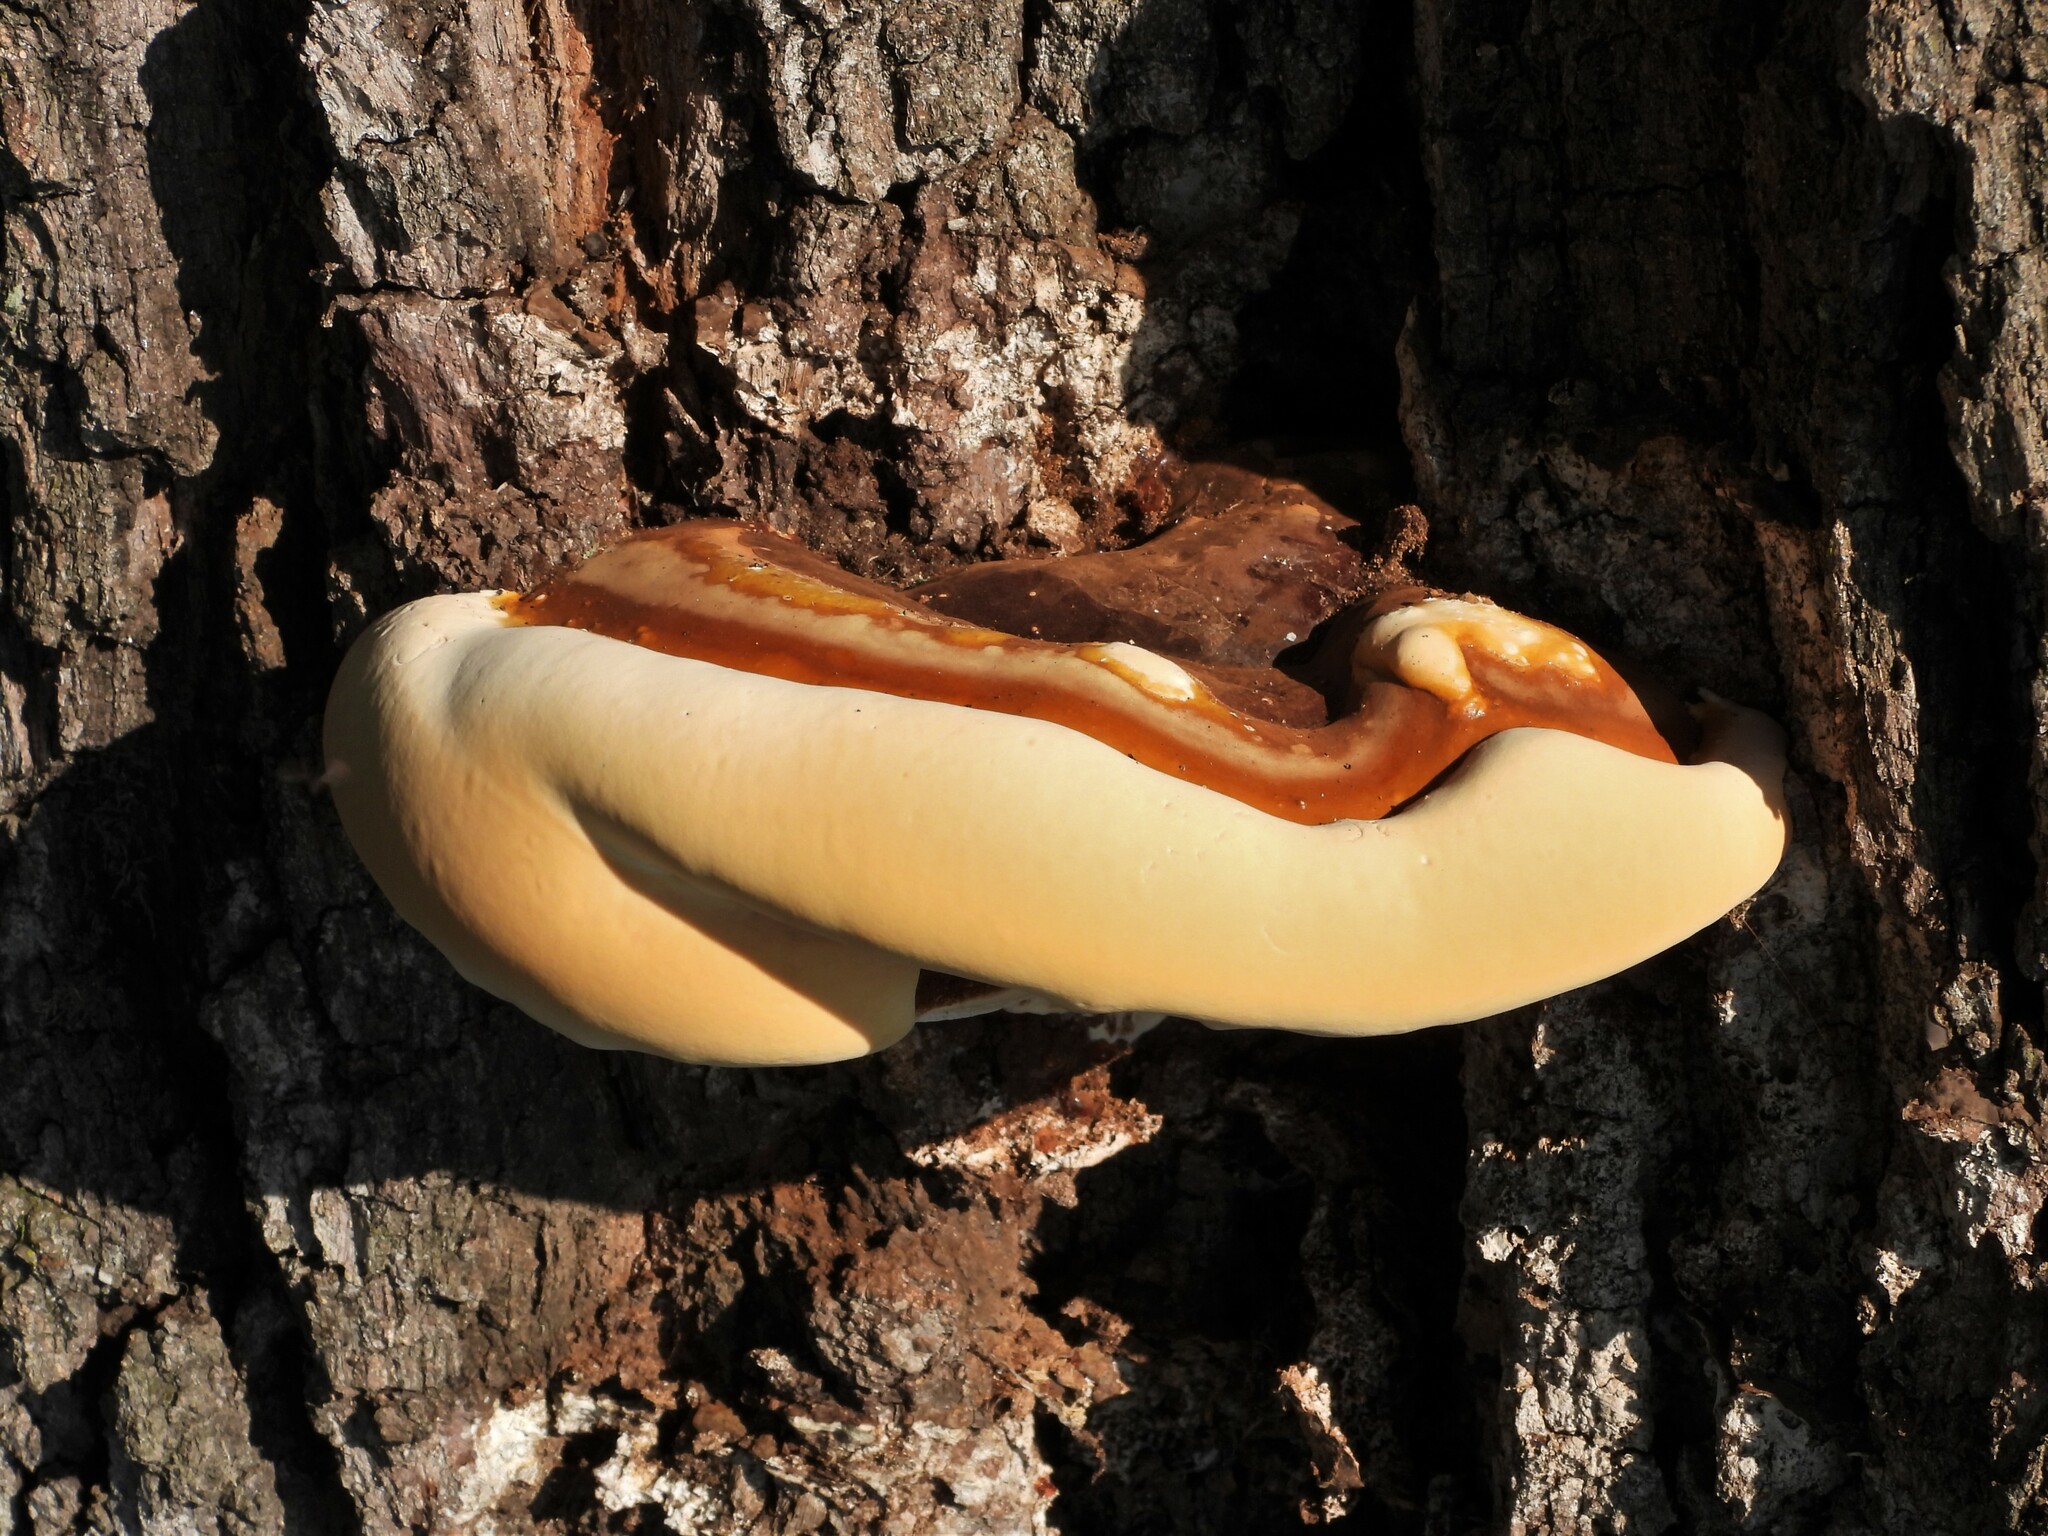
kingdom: Fungi
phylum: Basidiomycota
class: Agaricomycetes
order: Polyporales
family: Polyporaceae
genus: Ganoderma
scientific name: Ganoderma resinaceum
